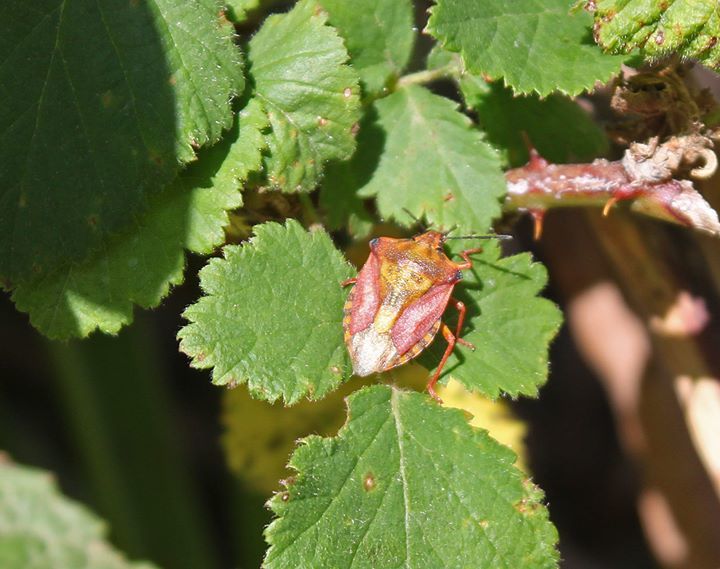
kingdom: Animalia
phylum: Arthropoda
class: Insecta
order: Hemiptera
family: Pentatomidae
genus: Carpocoris
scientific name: Carpocoris purpureipennis
